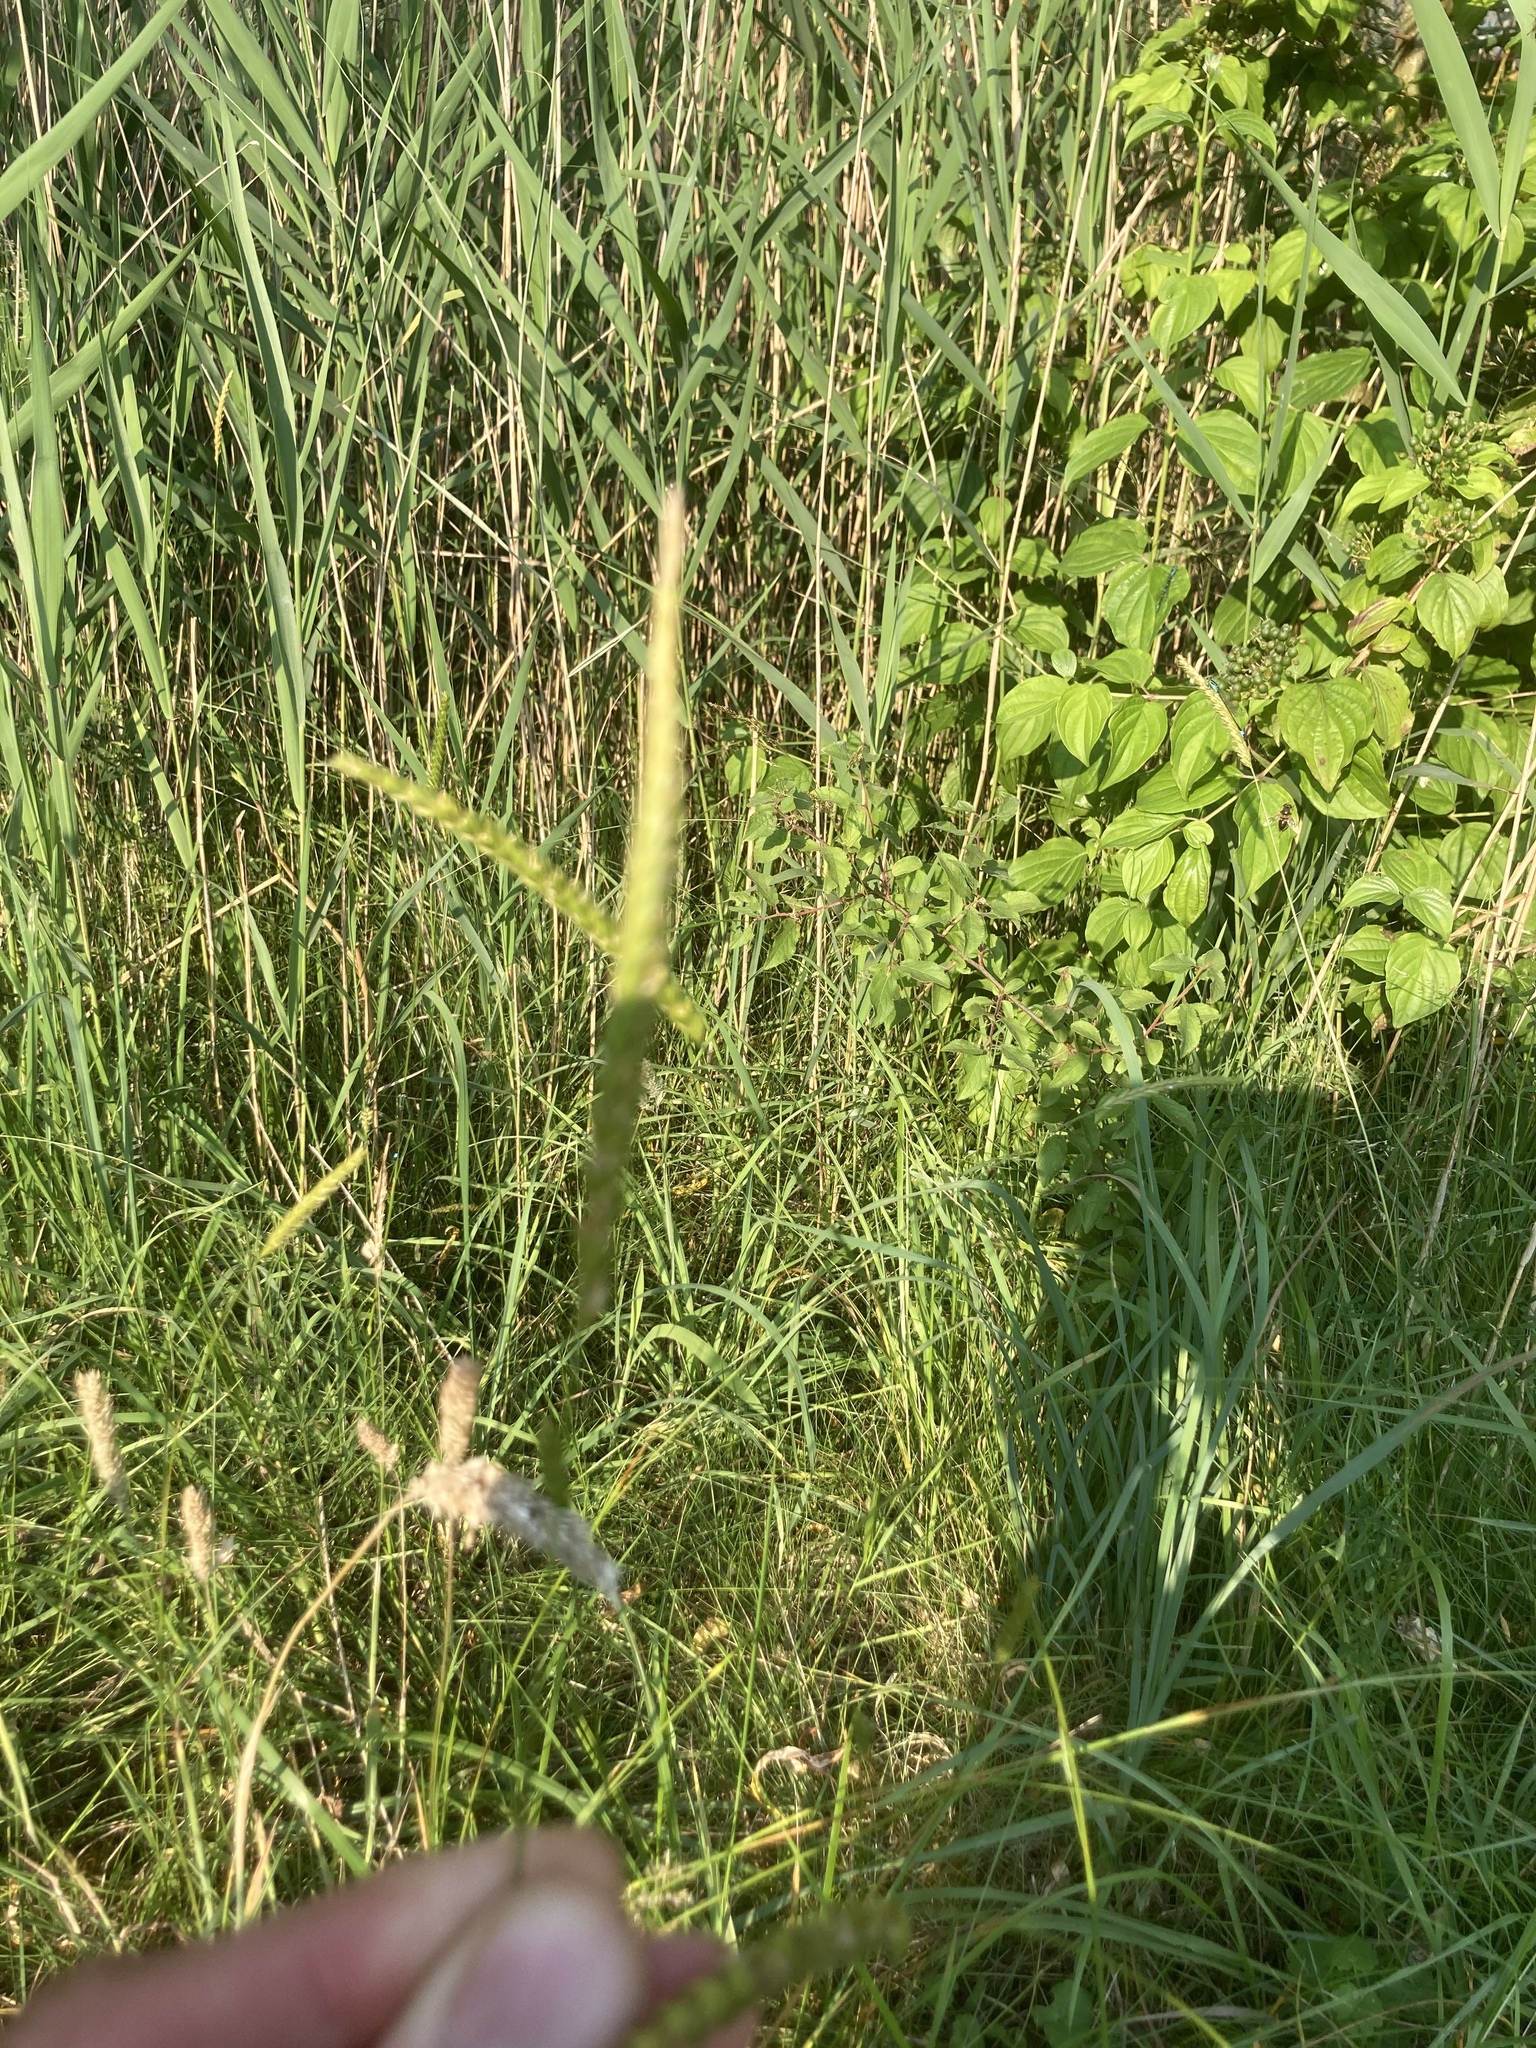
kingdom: Plantae
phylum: Tracheophyta
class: Liliopsida
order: Poales
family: Poaceae
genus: Cynosurus
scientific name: Cynosurus cristatus
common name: Crested dog's-tail
